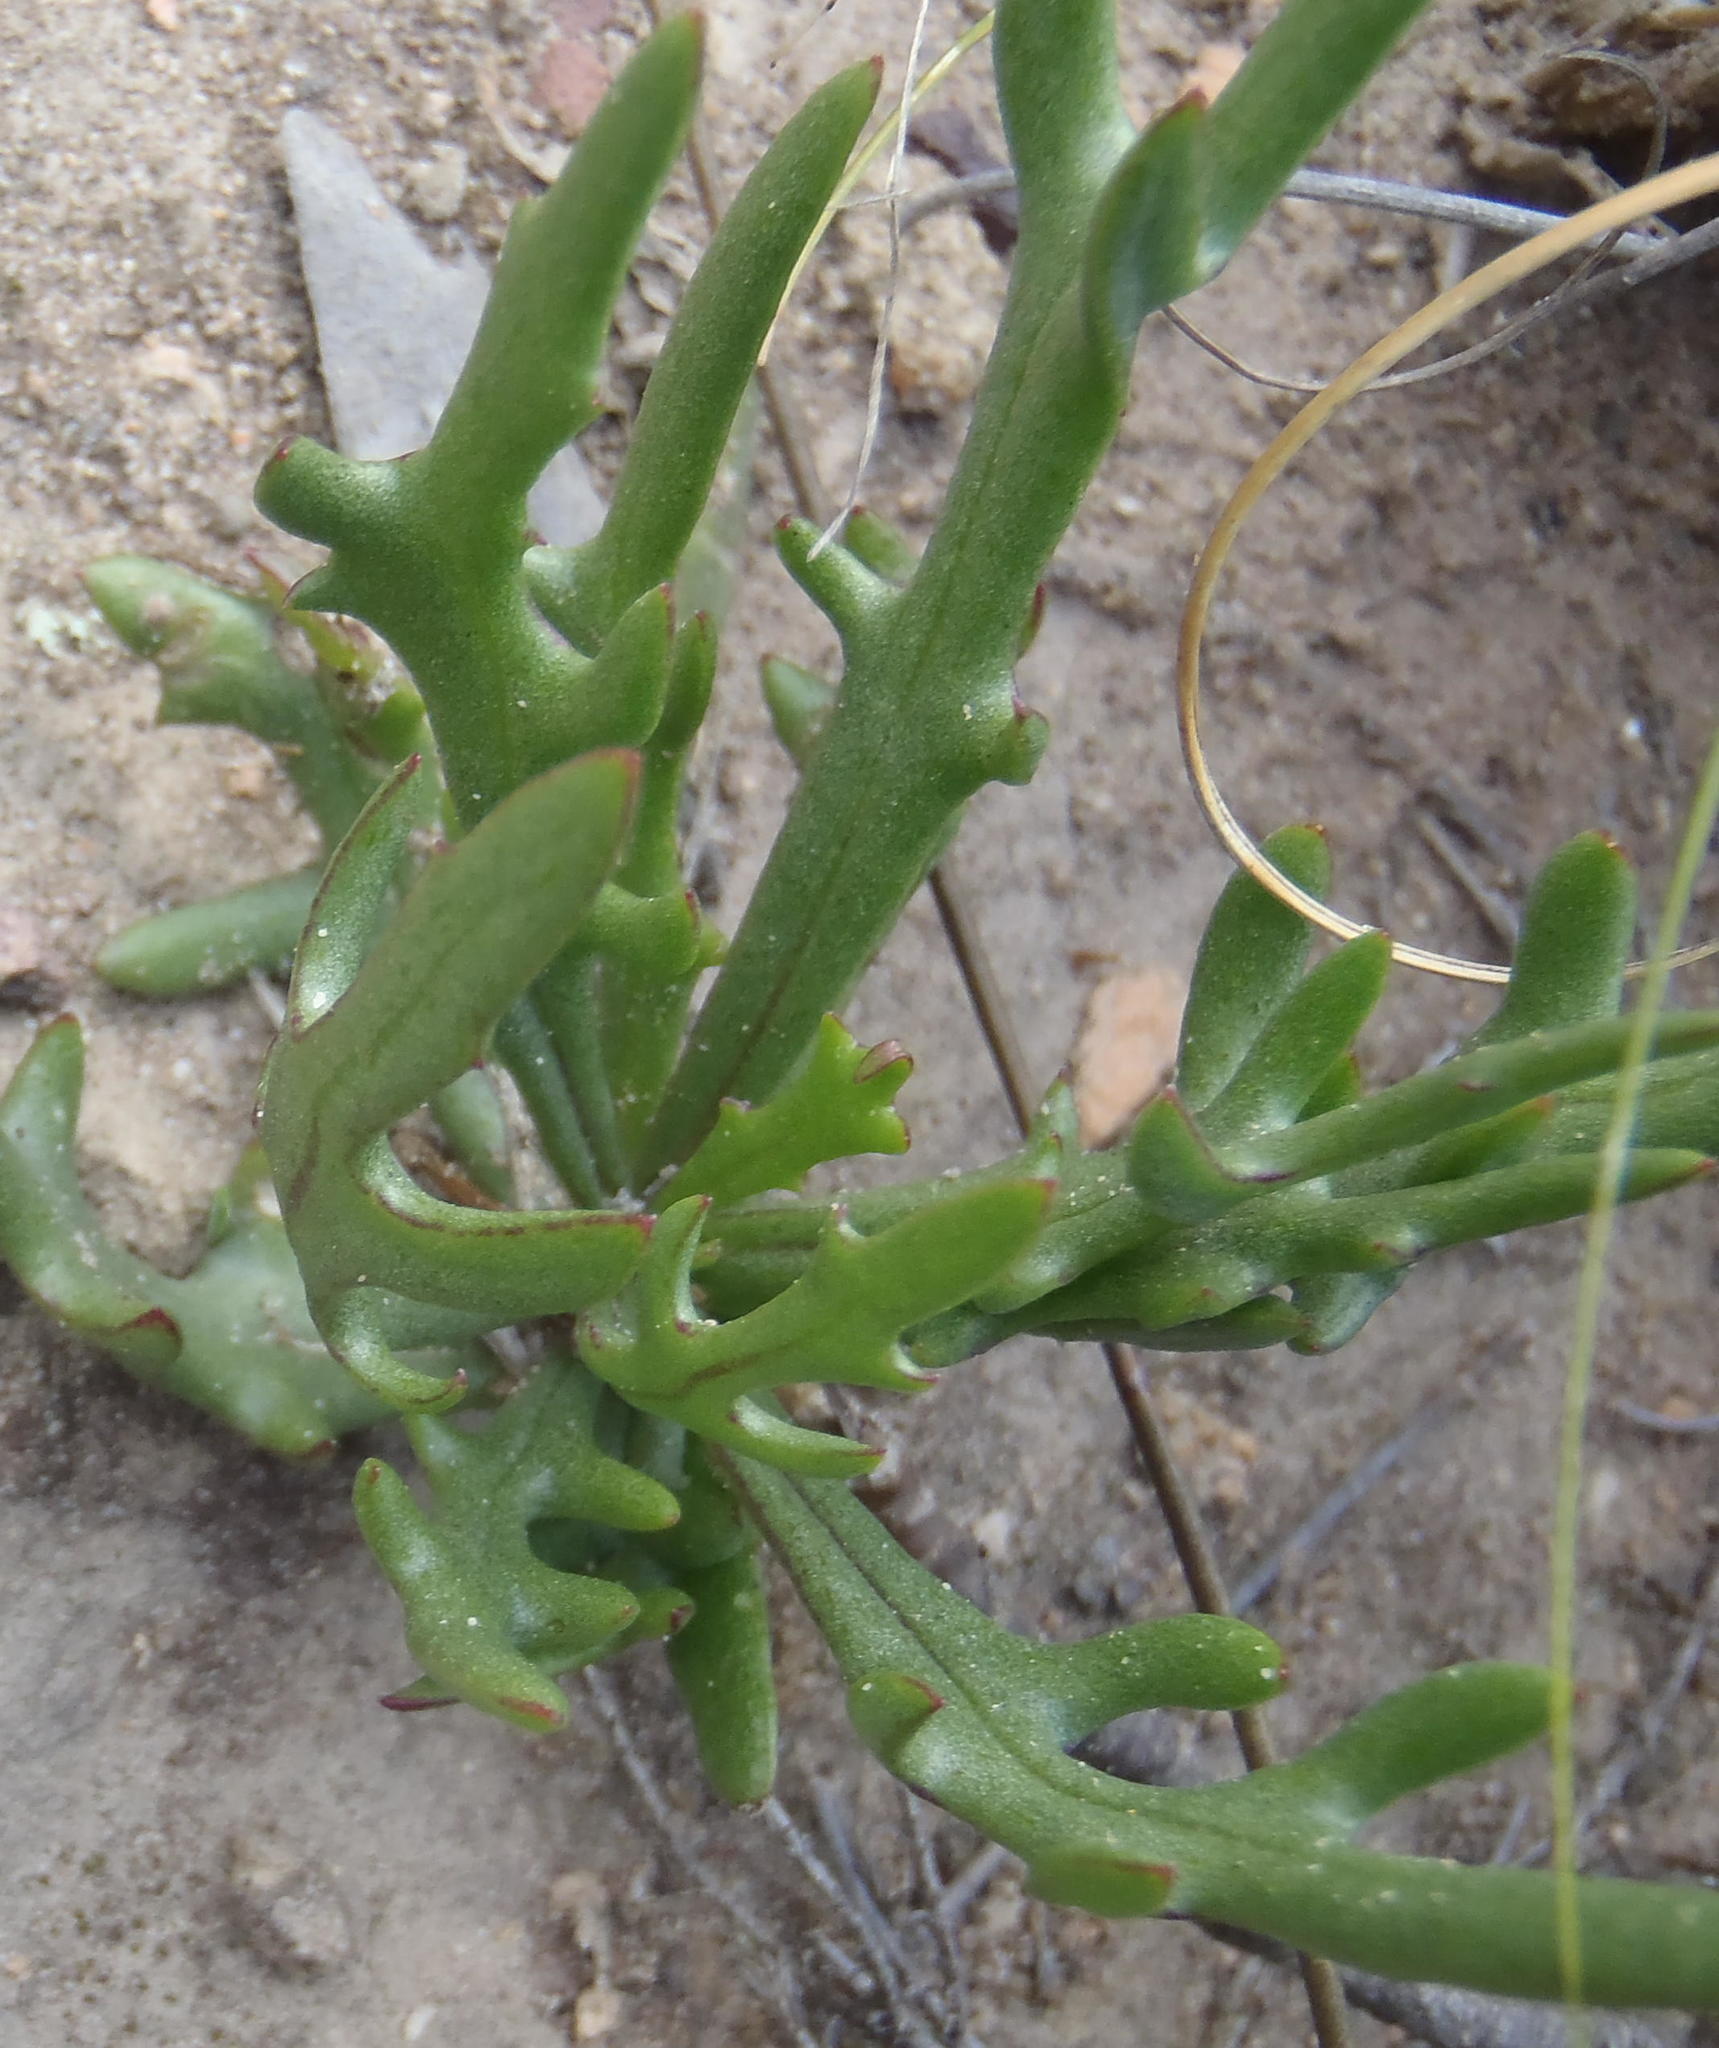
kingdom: Plantae
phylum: Tracheophyta
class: Magnoliopsida
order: Asterales
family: Asteraceae
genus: Othonna
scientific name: Othonna retrofracta
